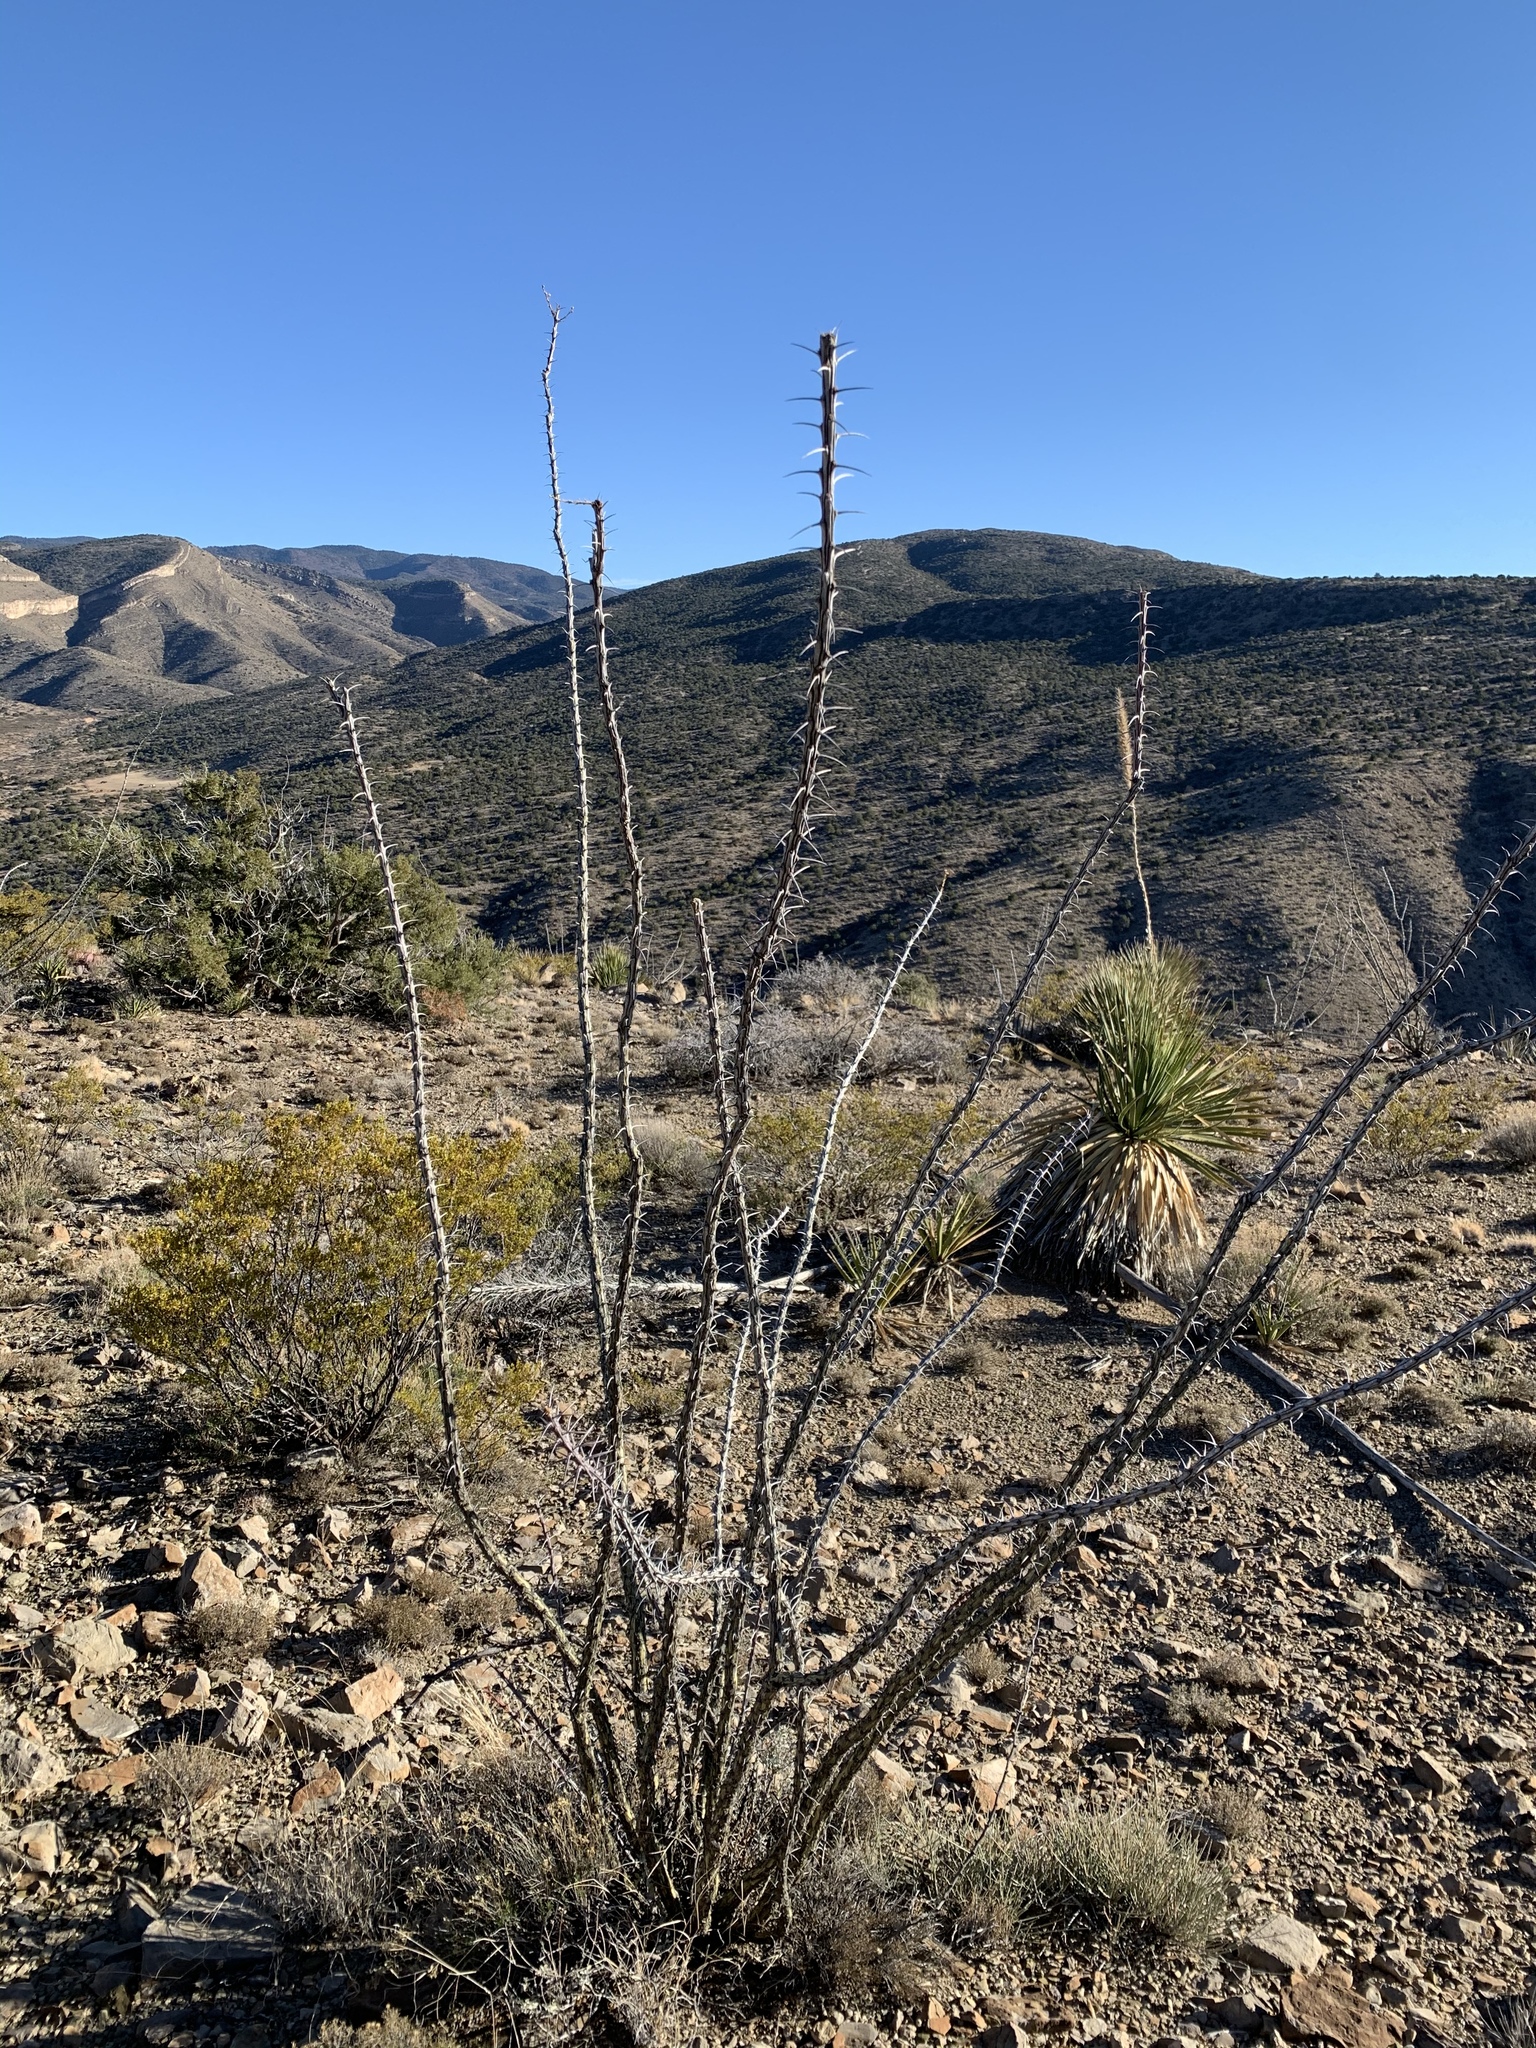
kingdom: Plantae
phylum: Tracheophyta
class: Magnoliopsida
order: Ericales
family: Fouquieriaceae
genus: Fouquieria
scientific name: Fouquieria splendens
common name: Vine-cactus
